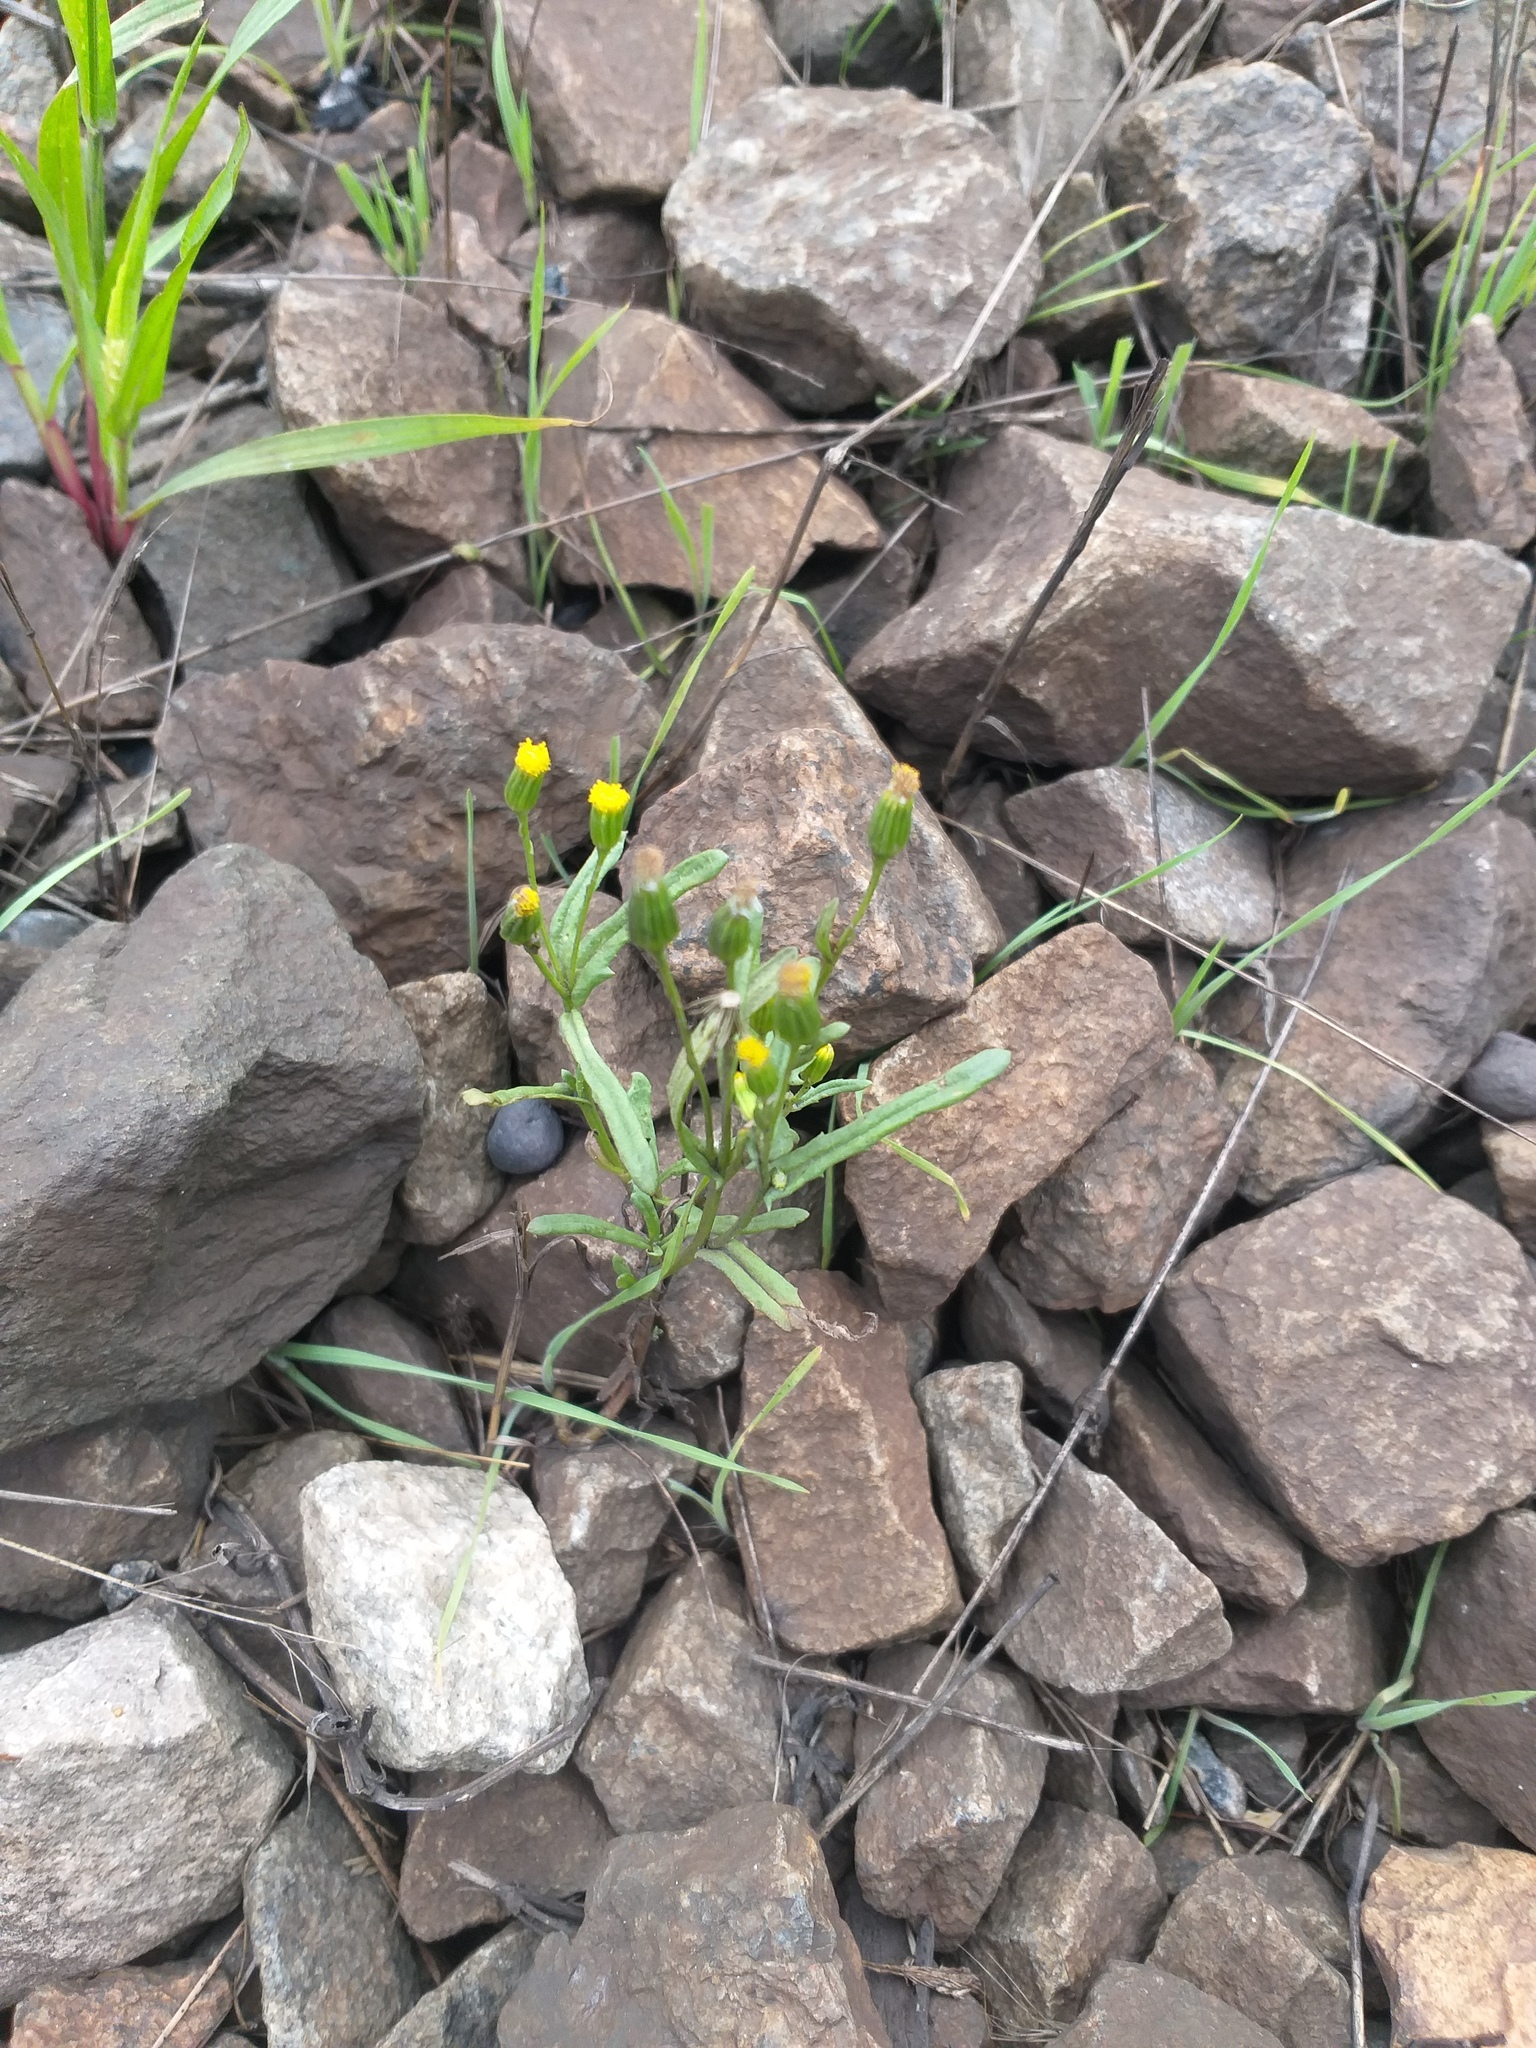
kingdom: Plantae
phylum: Tracheophyta
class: Magnoliopsida
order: Asterales
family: Asteraceae
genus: Senecio
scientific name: Senecio dubitabilis
